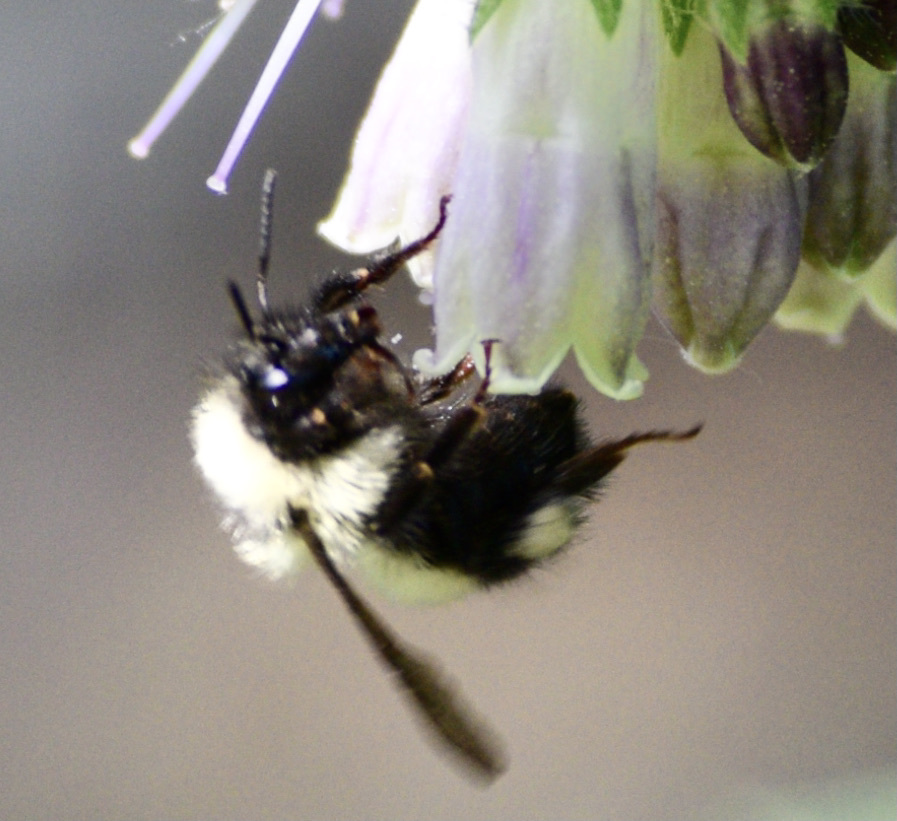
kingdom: Animalia
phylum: Arthropoda
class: Insecta
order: Hymenoptera
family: Apidae
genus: Pyrobombus
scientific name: Pyrobombus
